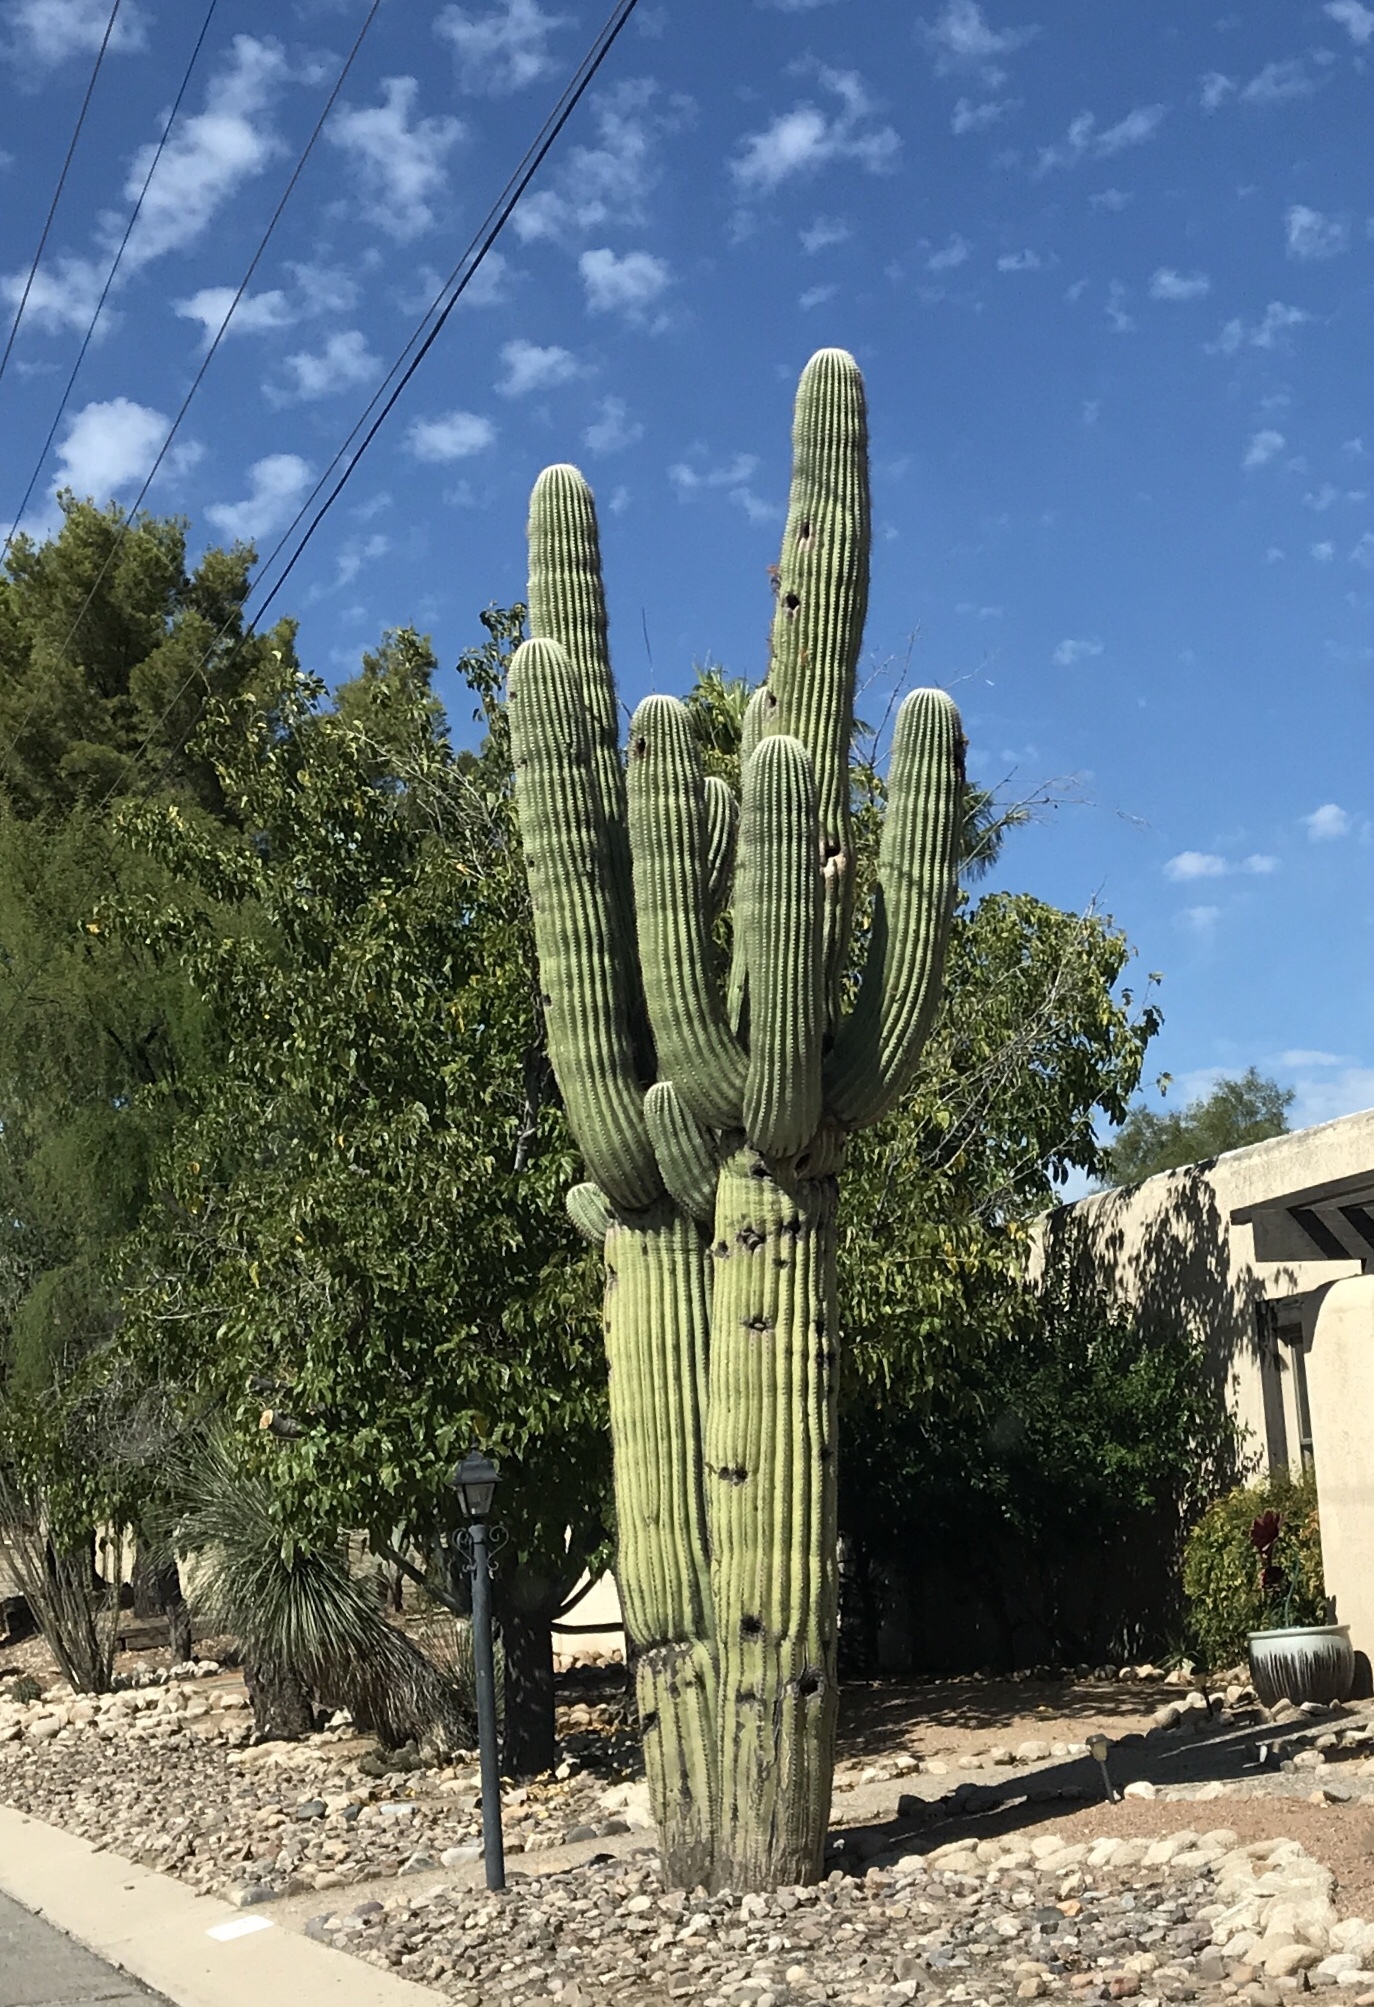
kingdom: Plantae
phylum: Tracheophyta
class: Magnoliopsida
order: Caryophyllales
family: Cactaceae
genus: Carnegiea
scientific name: Carnegiea gigantea
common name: Saguaro
